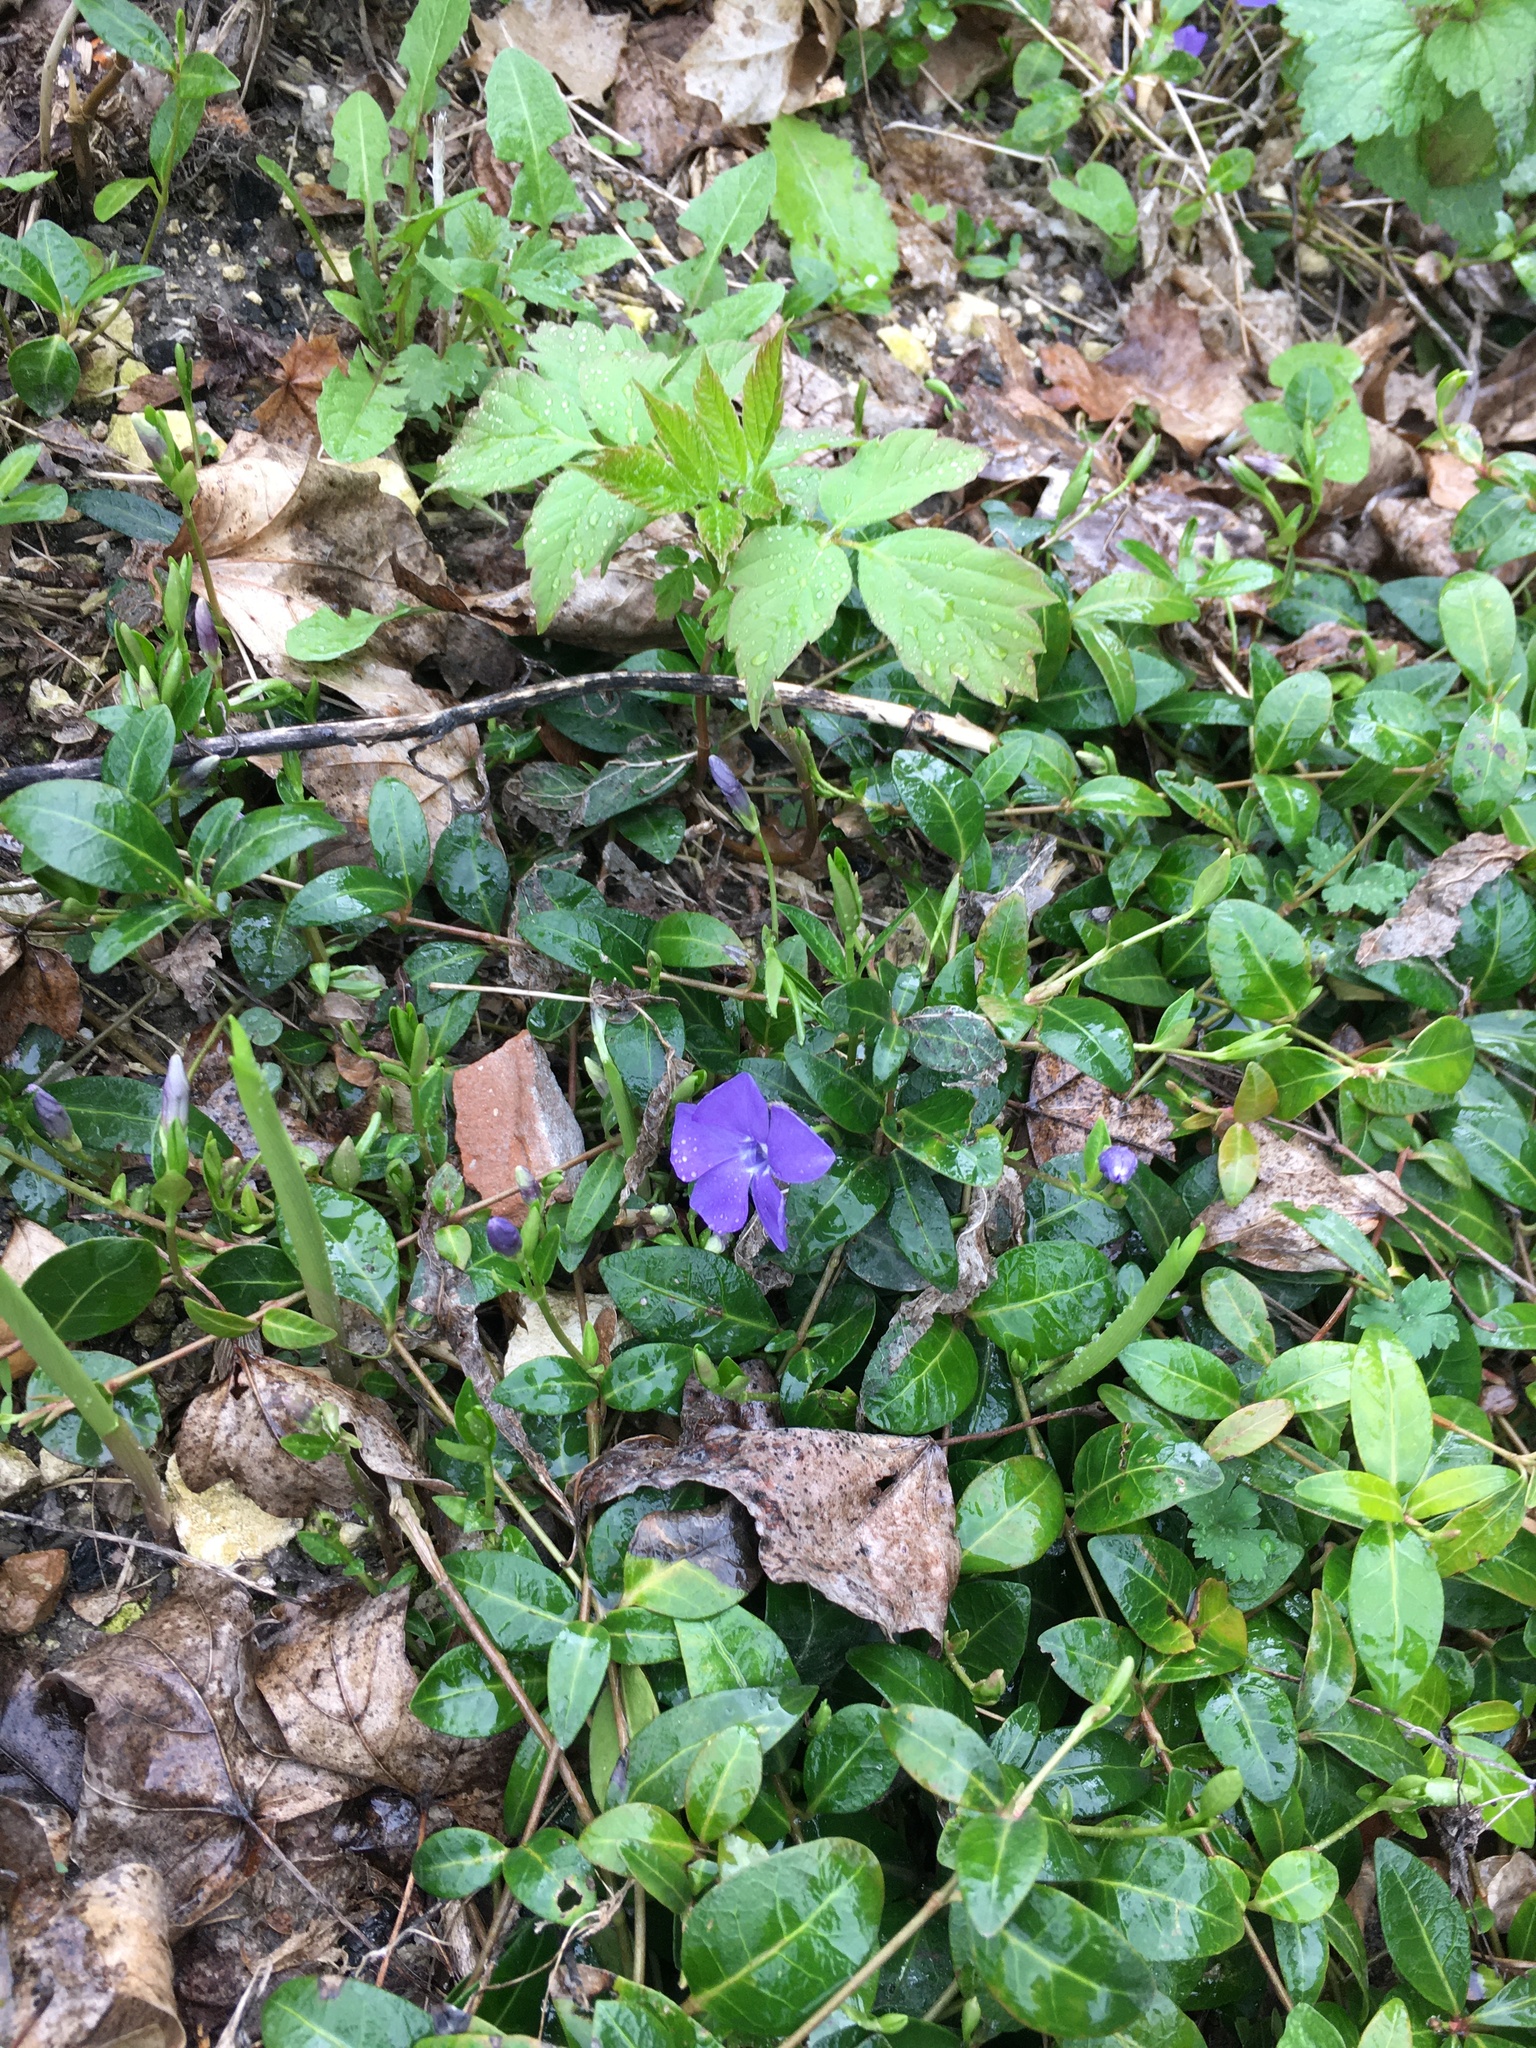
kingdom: Plantae
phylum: Tracheophyta
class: Magnoliopsida
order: Gentianales
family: Apocynaceae
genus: Vinca
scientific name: Vinca minor
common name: Lesser periwinkle
